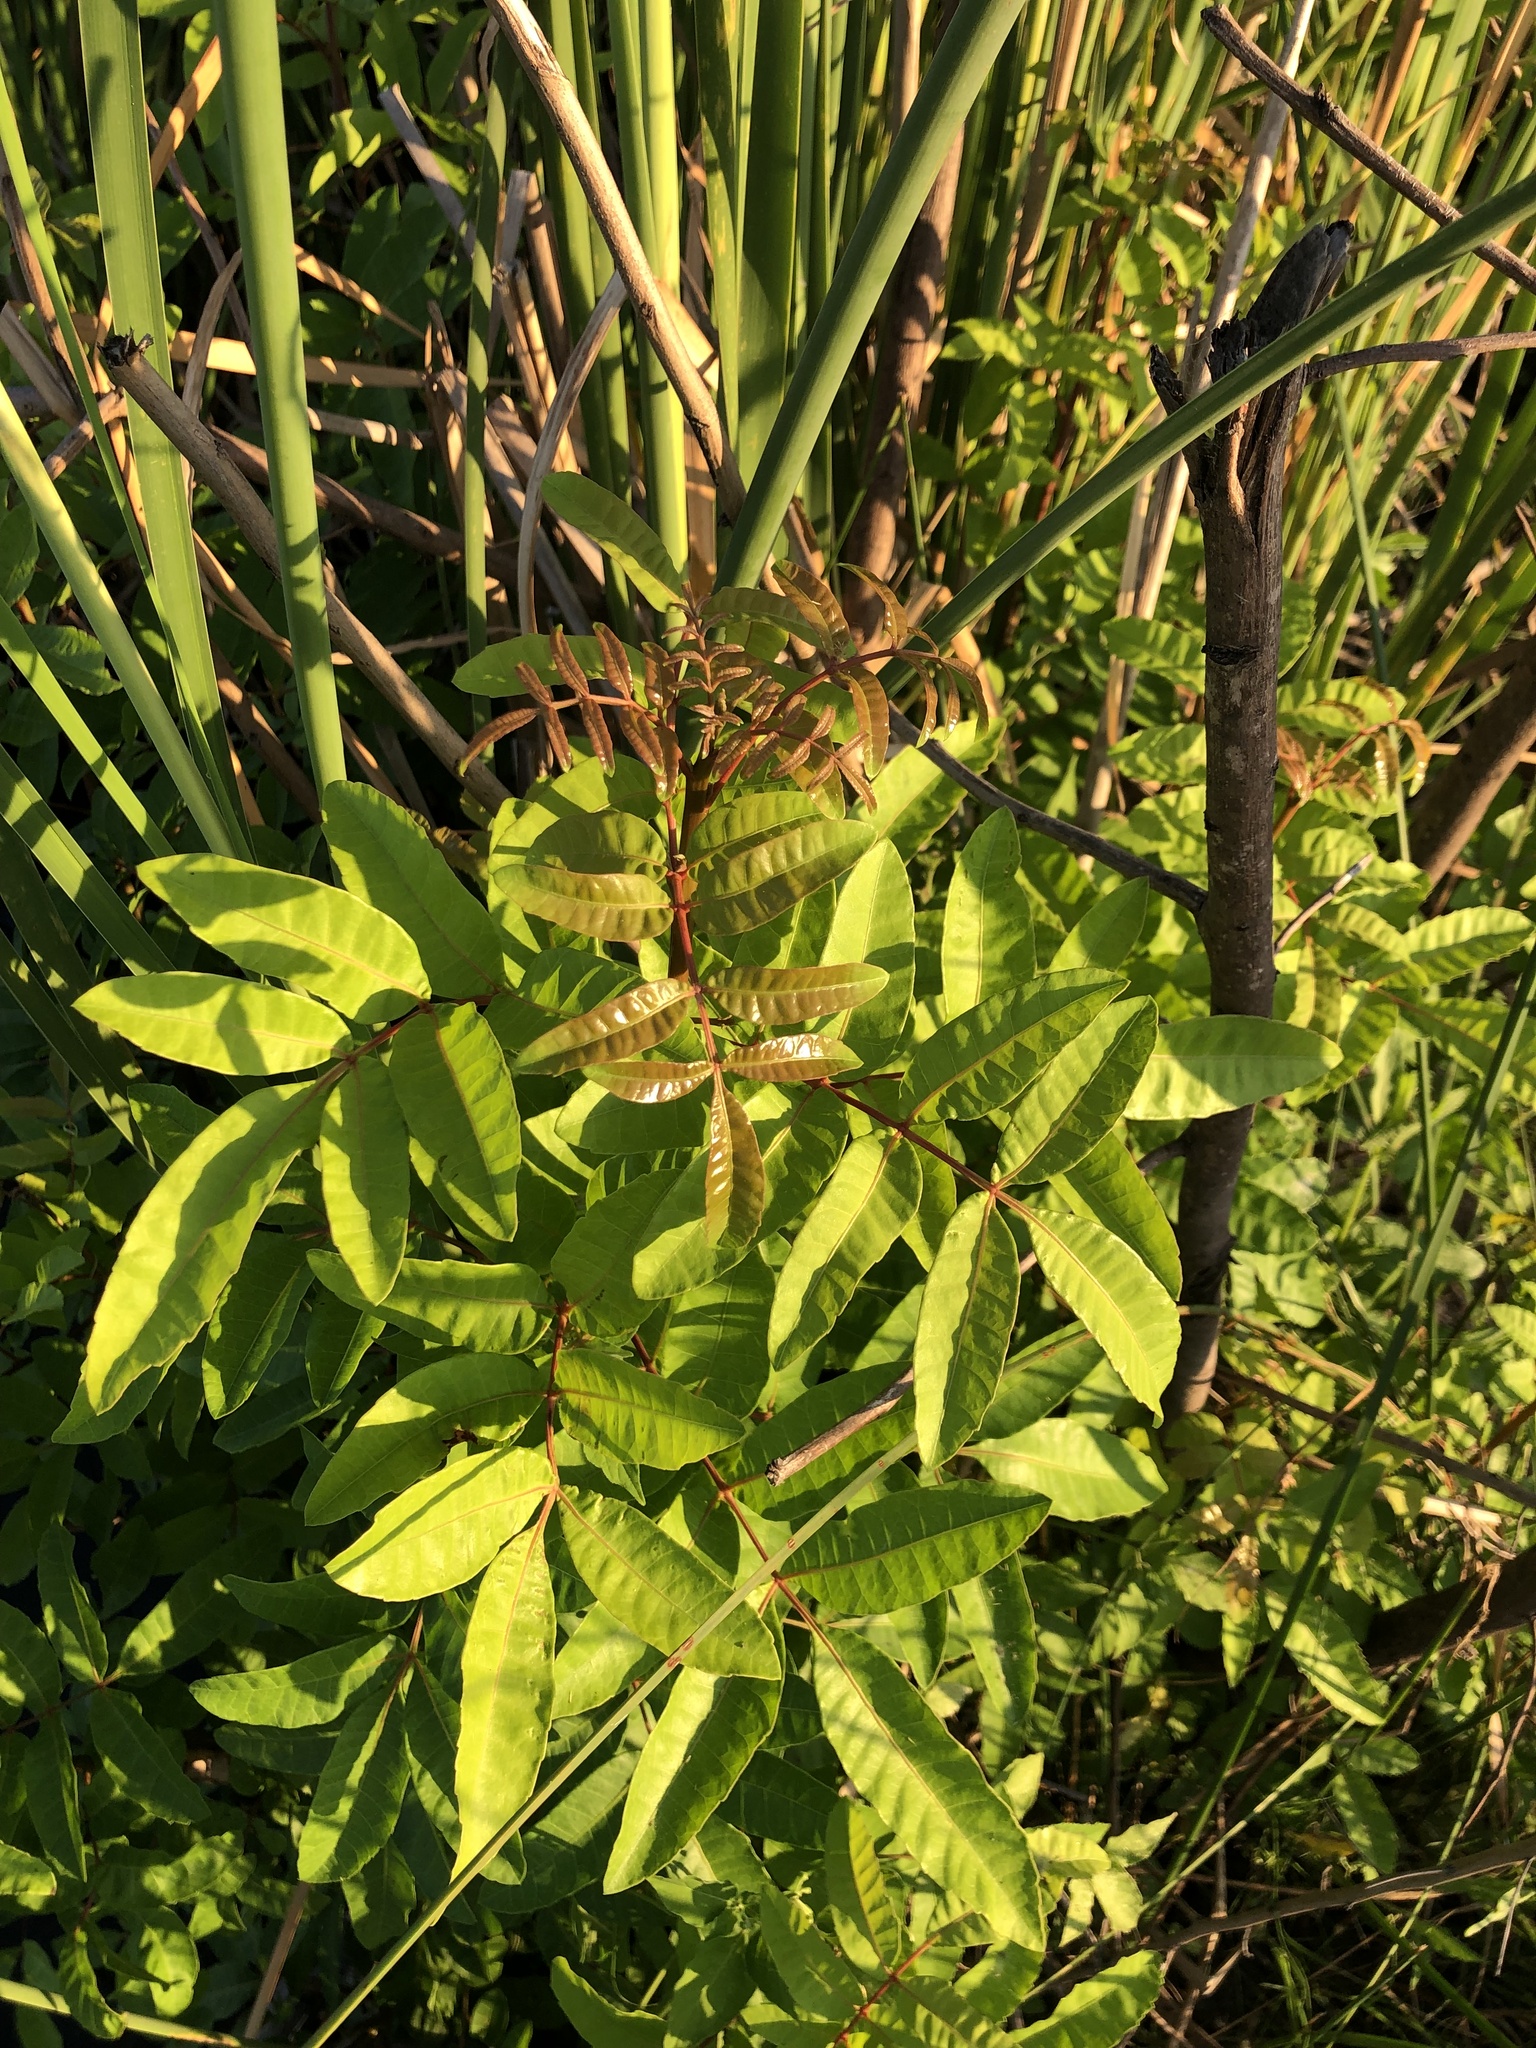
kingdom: Plantae
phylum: Tracheophyta
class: Magnoliopsida
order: Sapindales
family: Anacardiaceae
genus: Schinus
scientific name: Schinus terebinthifolia
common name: Brazilian peppertree
